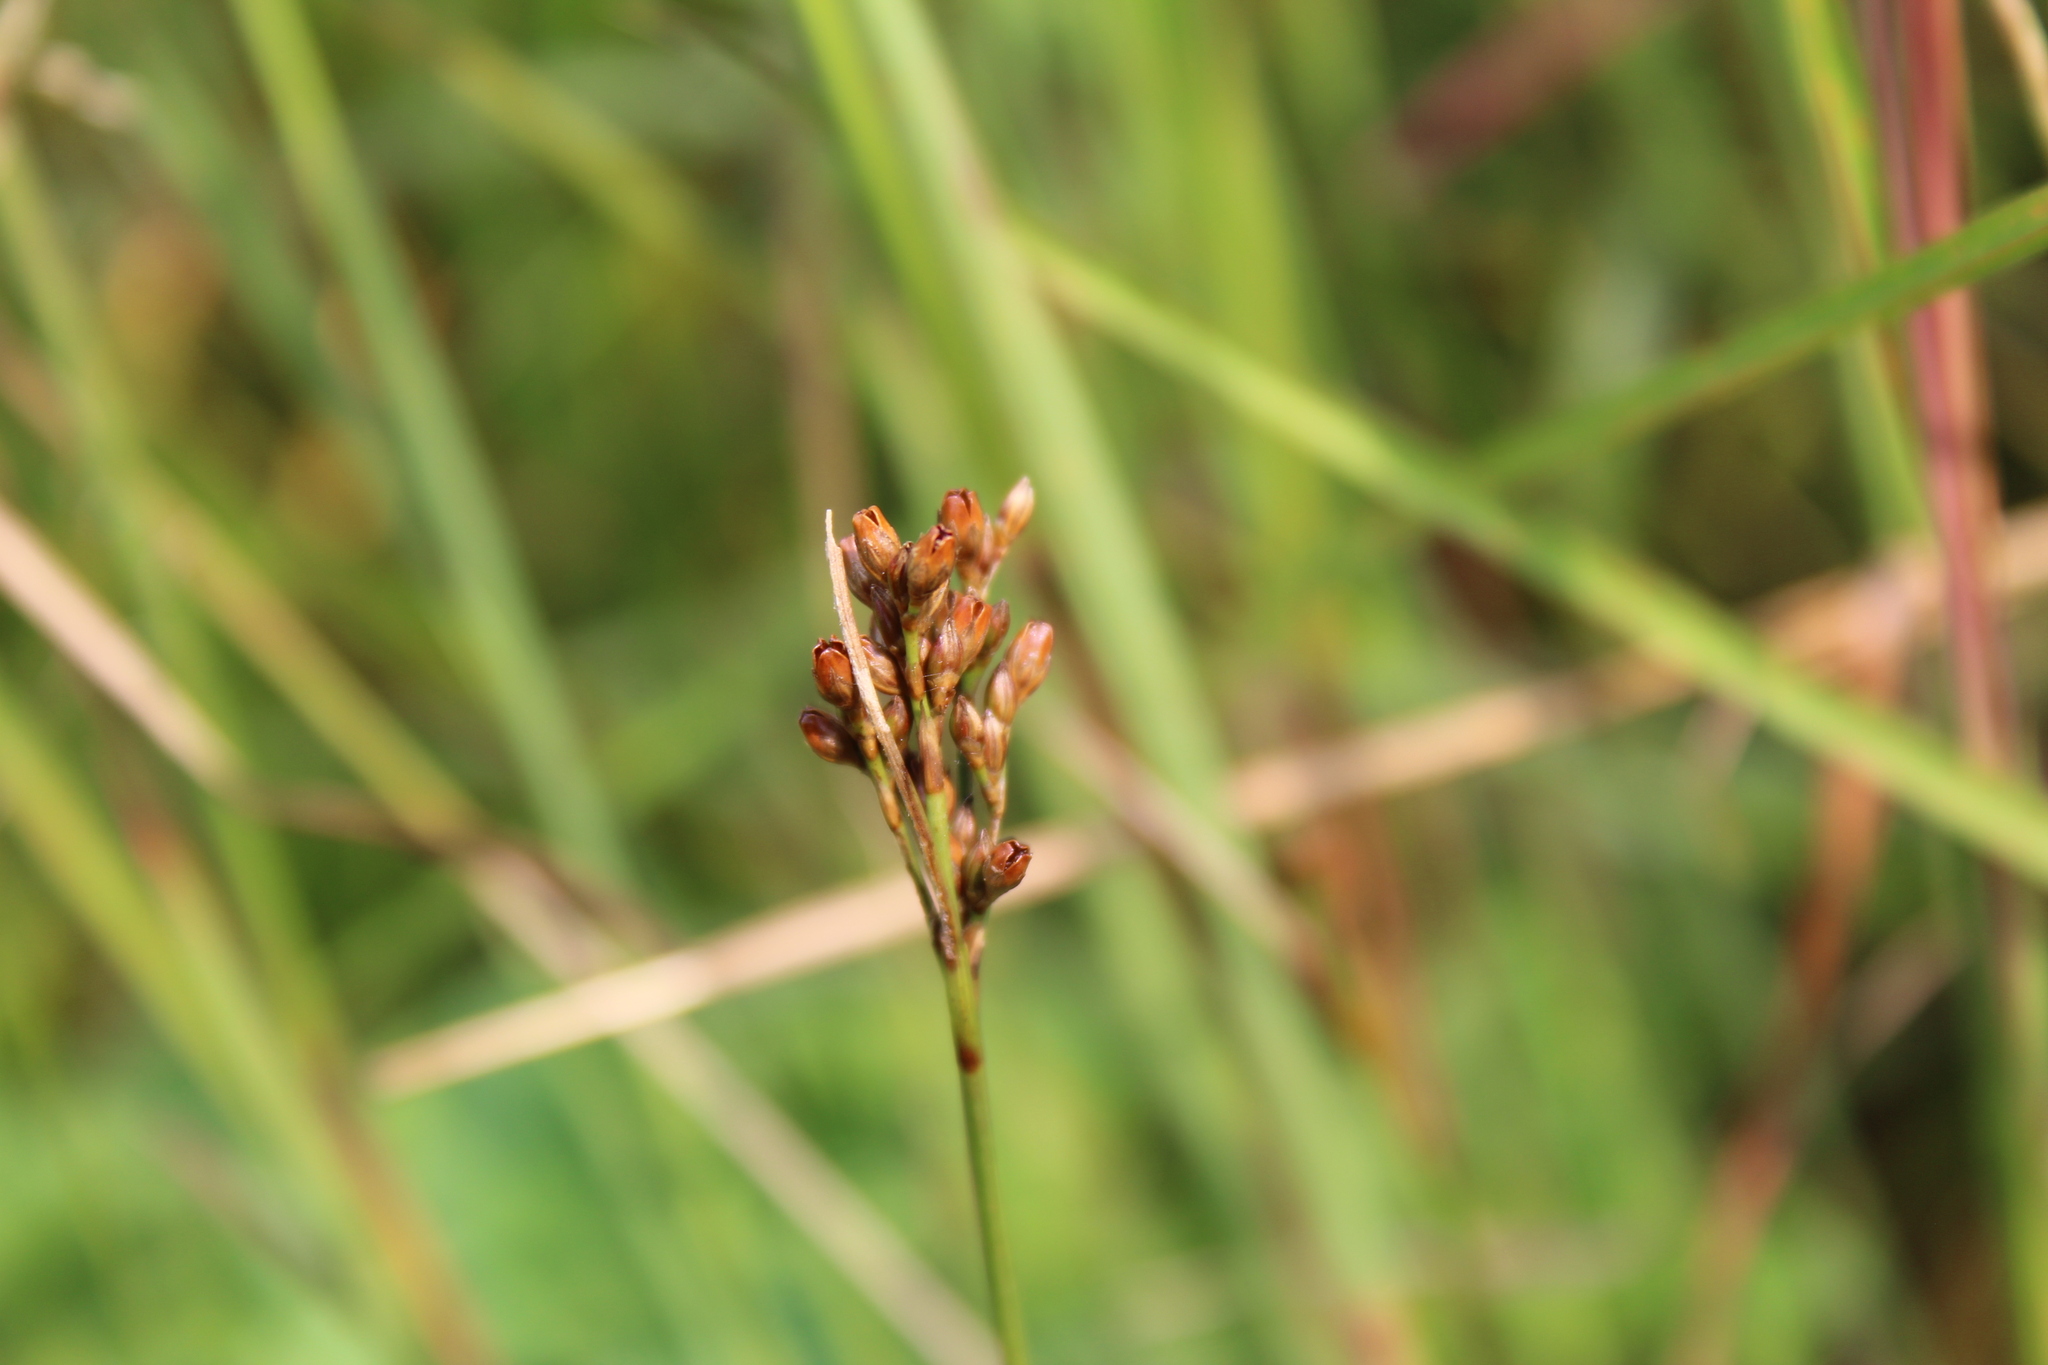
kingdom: Plantae
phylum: Tracheophyta
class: Liliopsida
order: Poales
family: Juncaceae
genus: Juncus
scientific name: Juncus greenei
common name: Greene's rush
